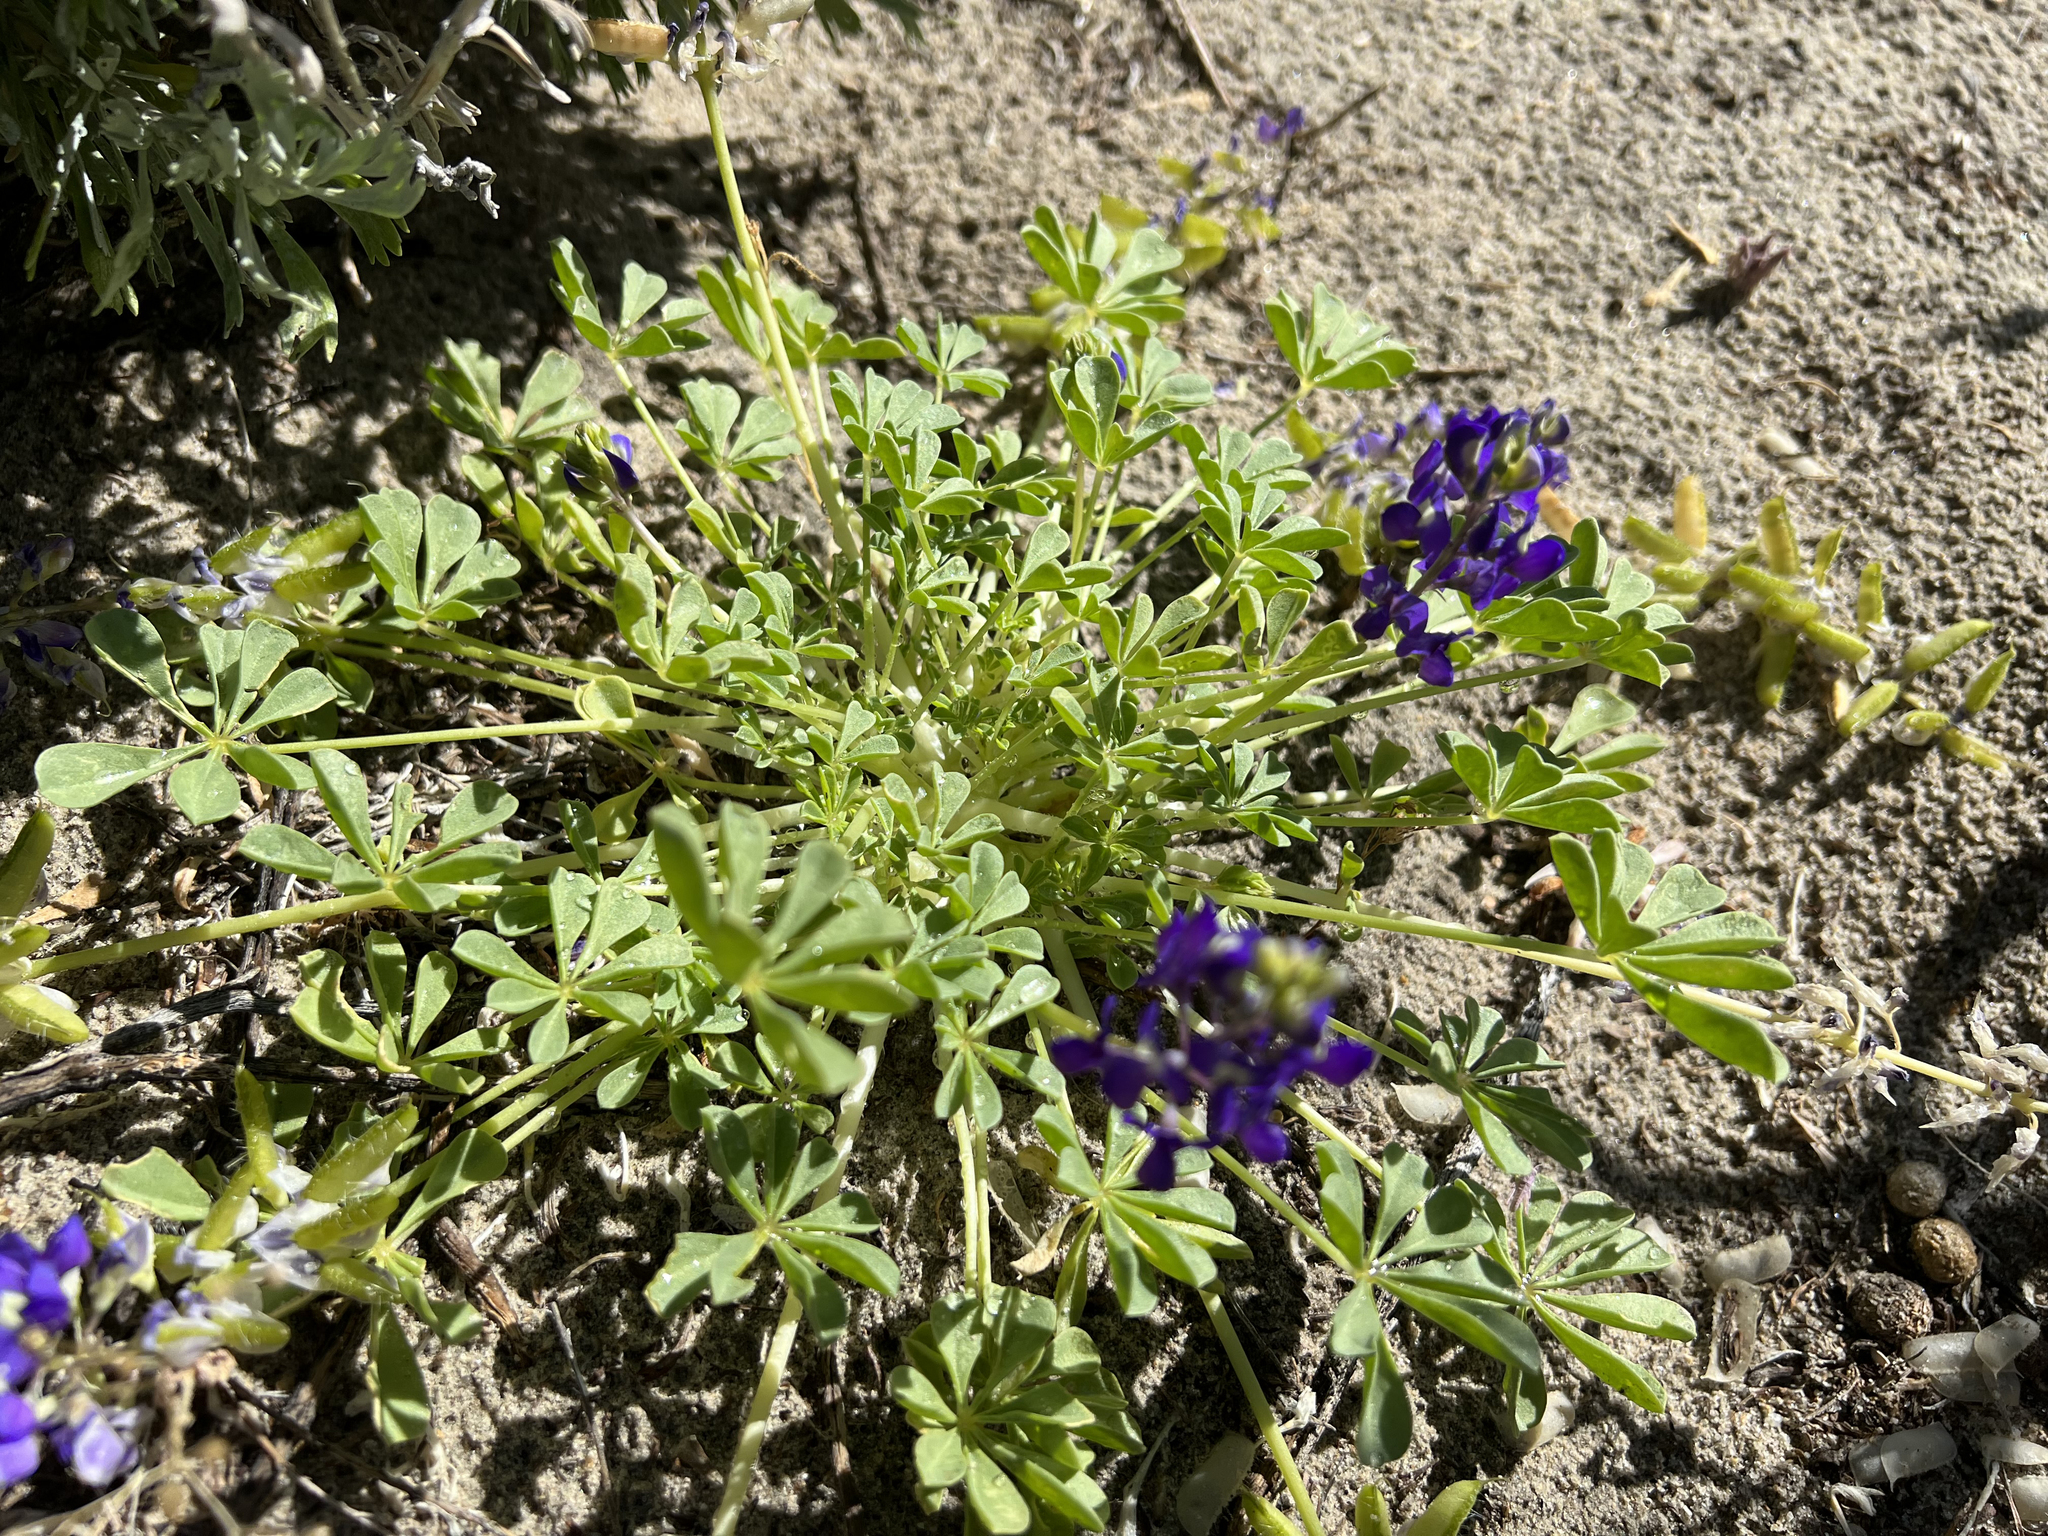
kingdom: Plantae
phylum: Tracheophyta
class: Magnoliopsida
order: Fabales
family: Fabaceae
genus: Lupinus
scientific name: Lupinus
